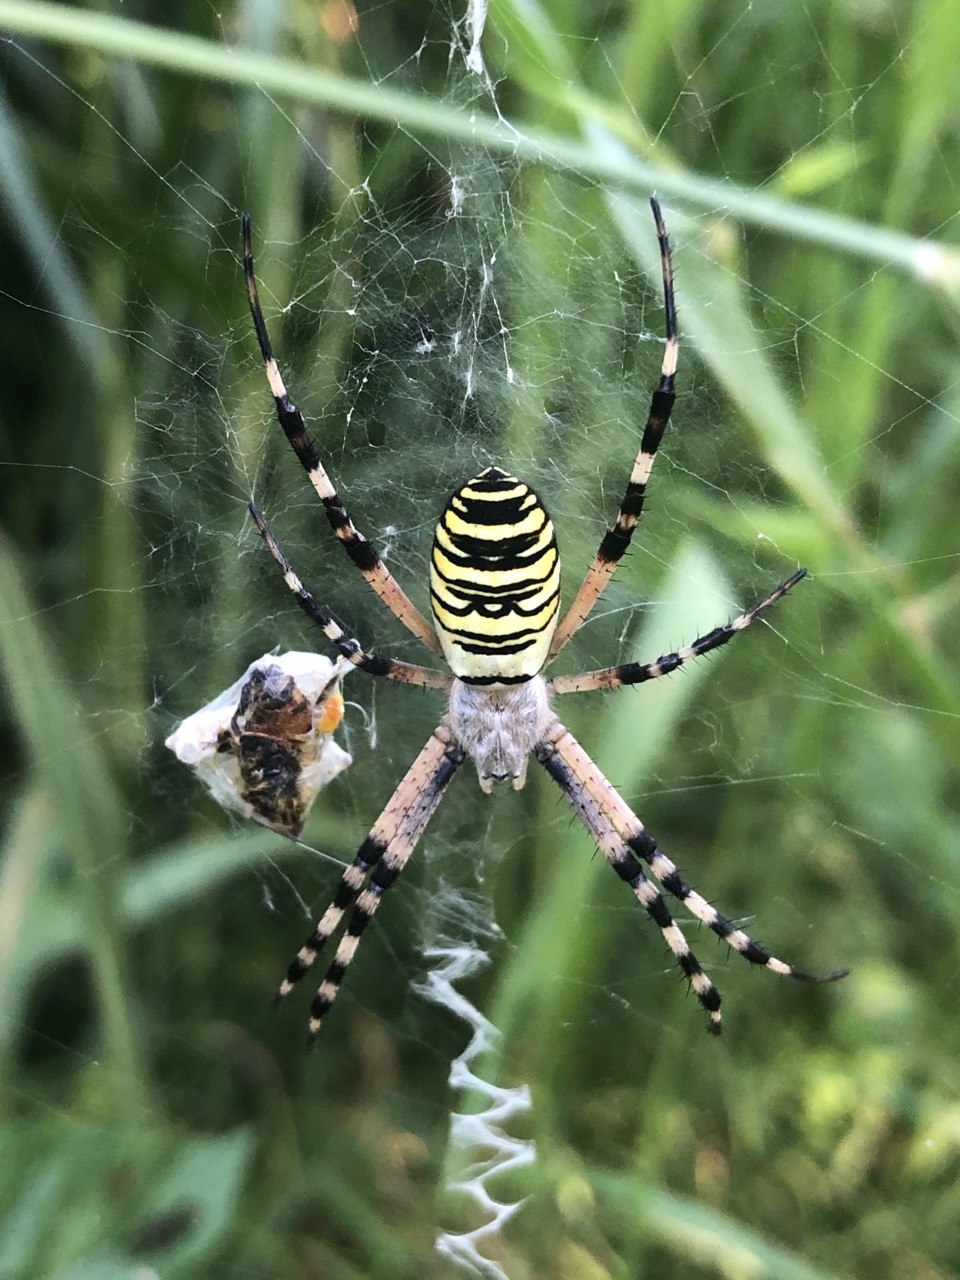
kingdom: Animalia
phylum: Arthropoda
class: Arachnida
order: Araneae
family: Araneidae
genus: Argiope
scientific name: Argiope bruennichi
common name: Wasp spider
